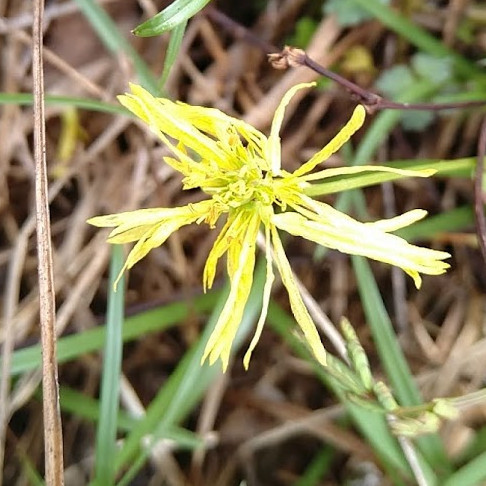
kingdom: Plantae
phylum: Tracheophyta
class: Magnoliopsida
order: Fabales
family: Fabaceae
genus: Neptunia
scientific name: Neptunia gracilis
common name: Sensitive-plant
